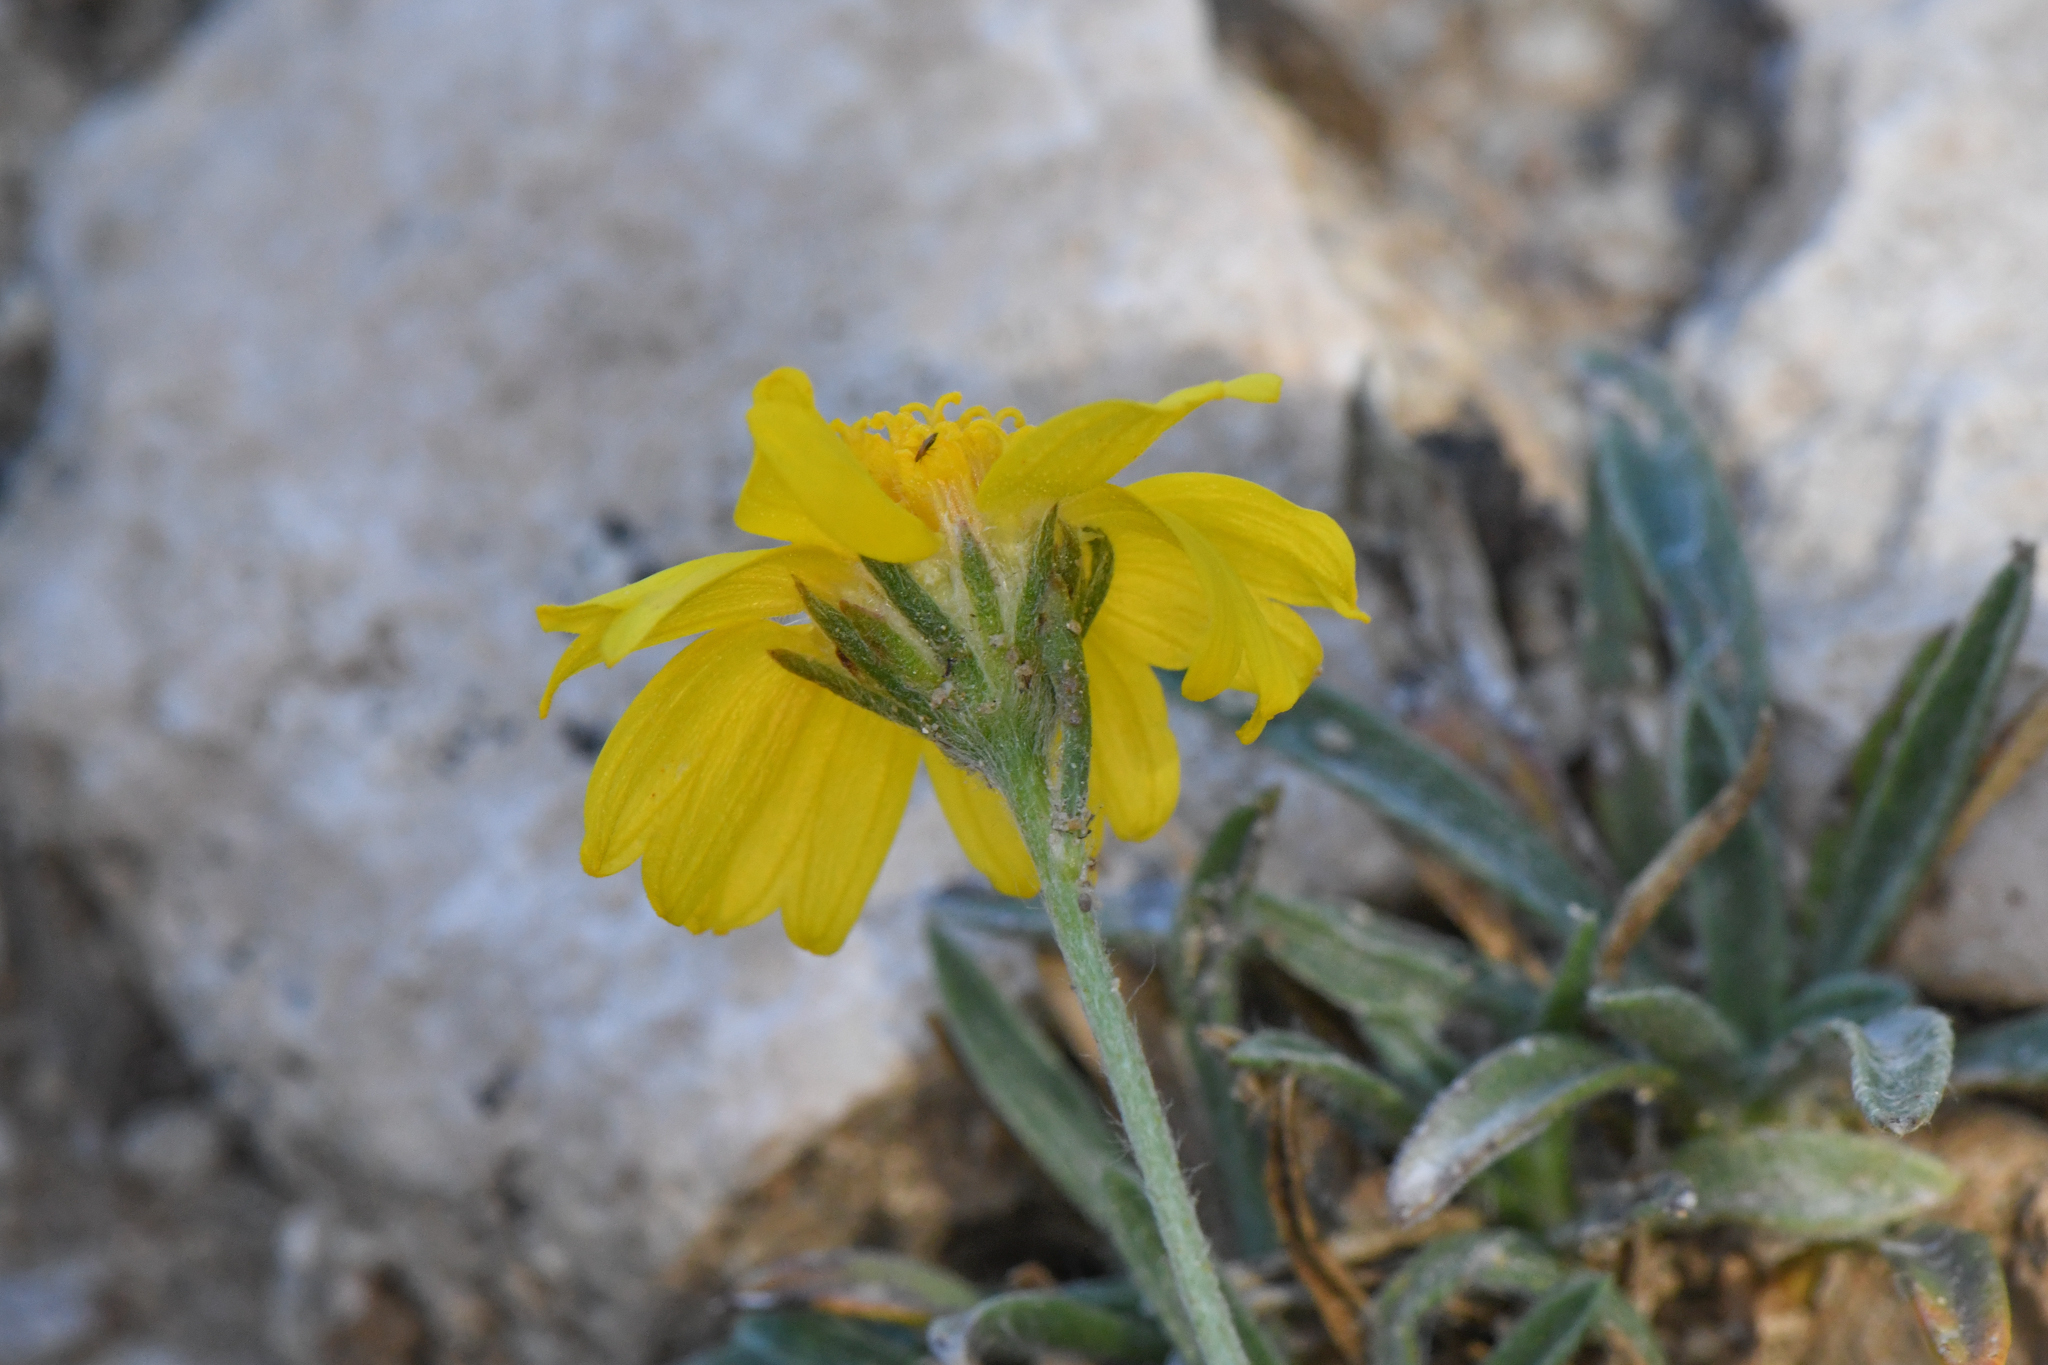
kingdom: Plantae
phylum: Tracheophyta
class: Magnoliopsida
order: Asterales
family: Asteraceae
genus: Tetraneuris
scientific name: Tetraneuris acaulis
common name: Butte marigold
